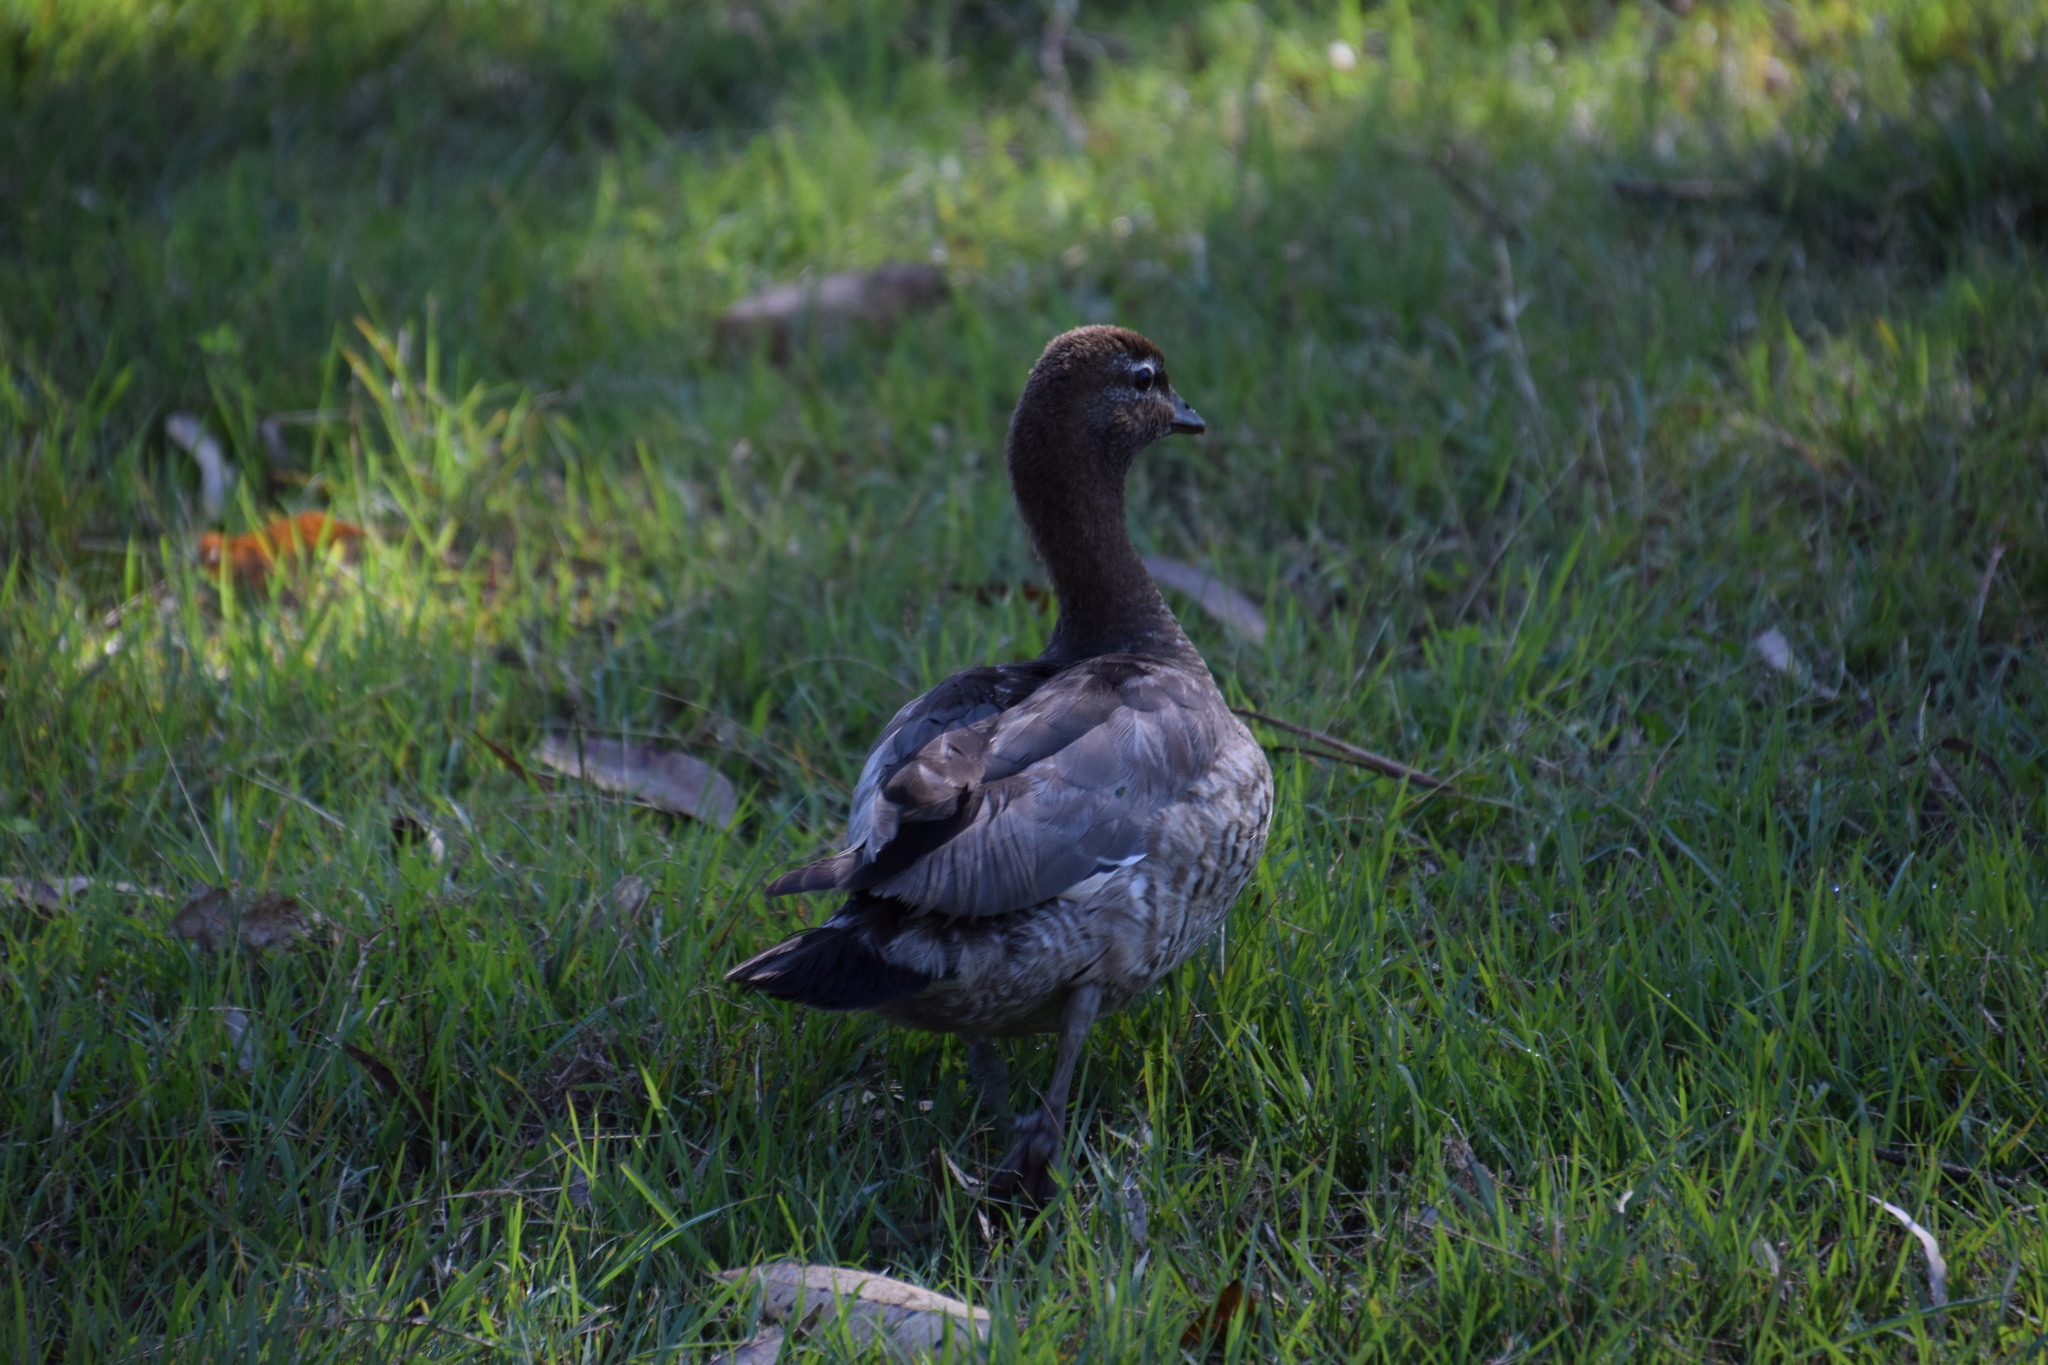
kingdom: Animalia
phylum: Chordata
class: Aves
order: Anseriformes
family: Anatidae
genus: Chenonetta
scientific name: Chenonetta jubata
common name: Maned duck
